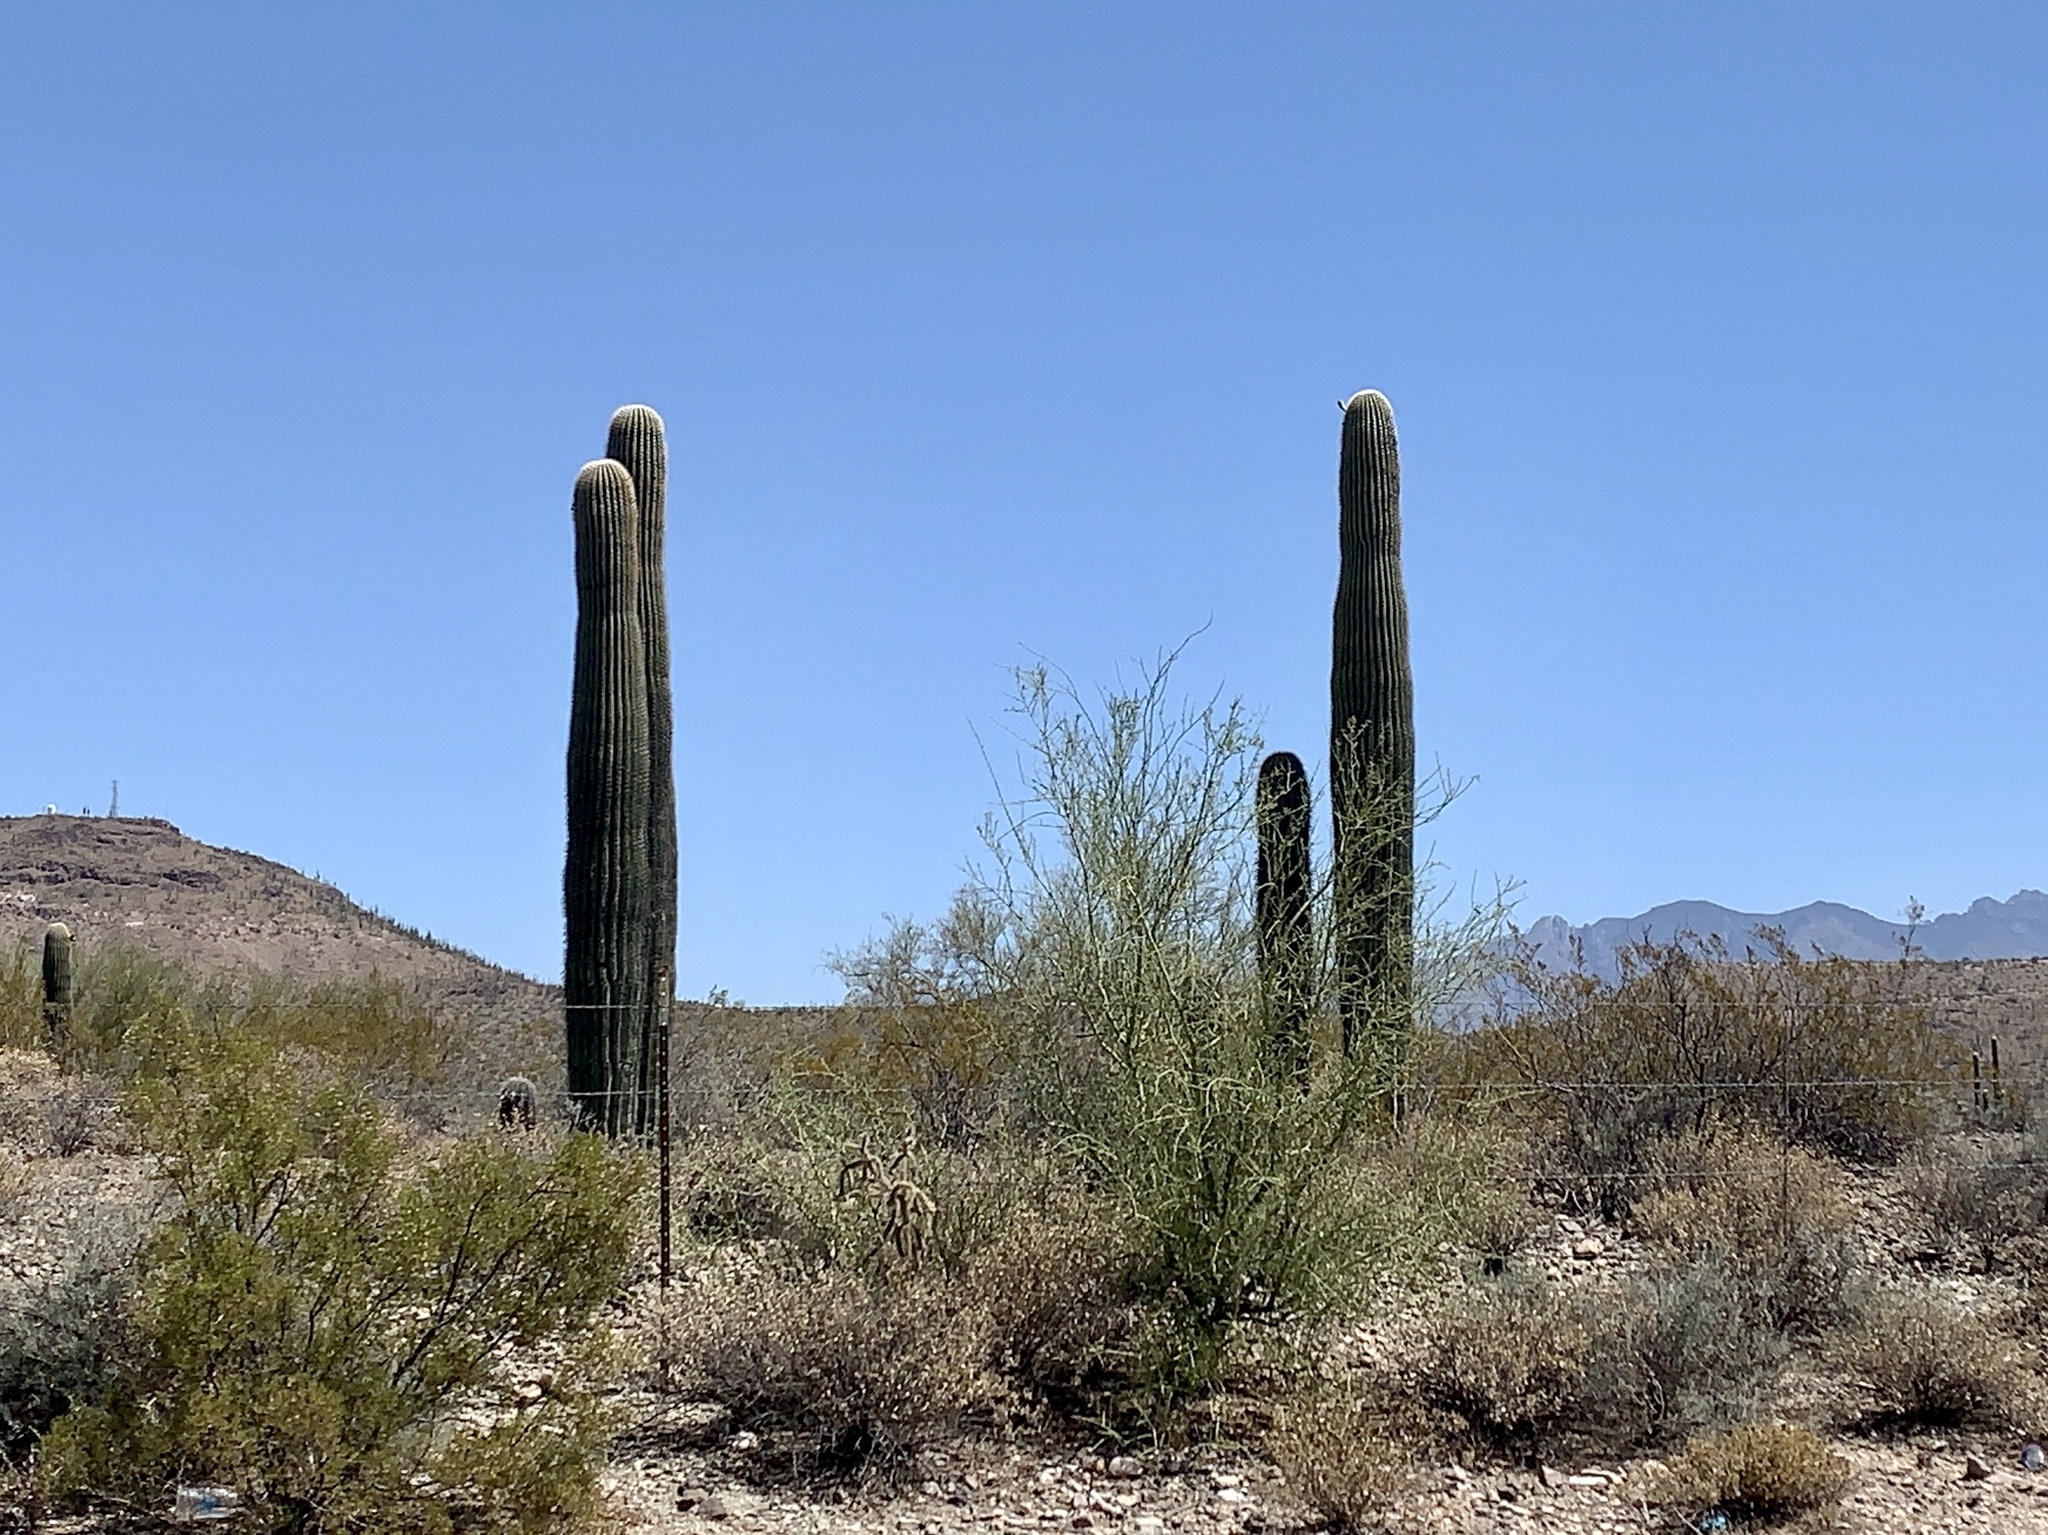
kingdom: Plantae
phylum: Tracheophyta
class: Magnoliopsida
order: Caryophyllales
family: Cactaceae
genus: Carnegiea
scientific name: Carnegiea gigantea
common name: Saguaro
